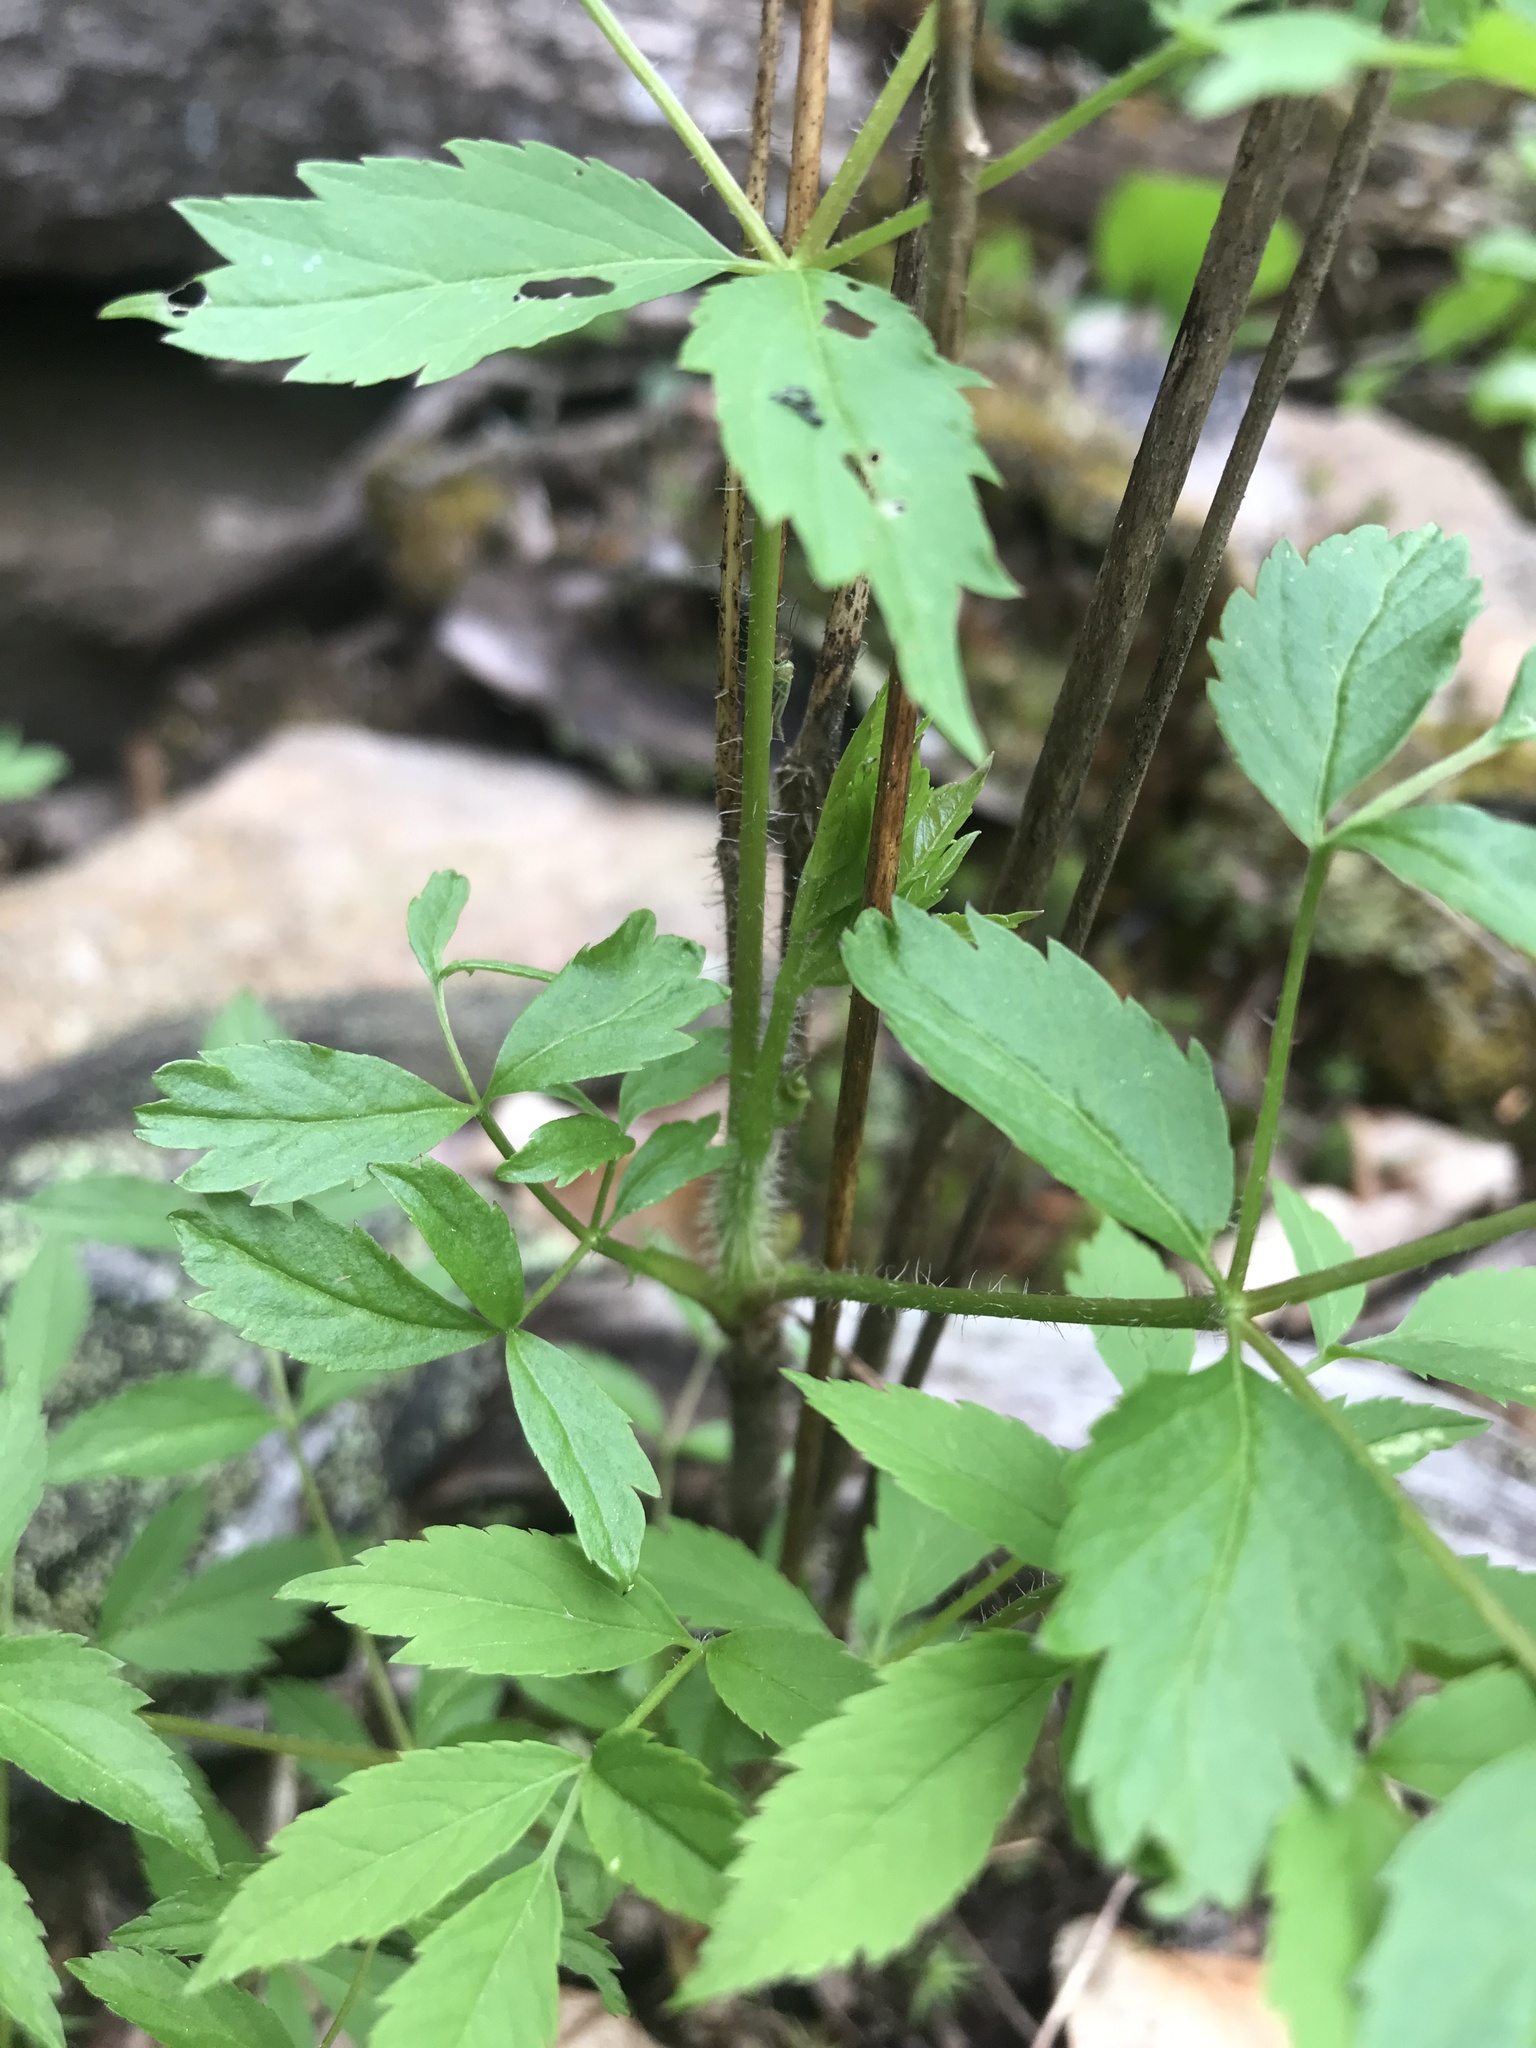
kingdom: Plantae
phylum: Tracheophyta
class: Magnoliopsida
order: Apiales
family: Araliaceae
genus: Aralia
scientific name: Aralia hispida
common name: Bristly sarsaparilla
